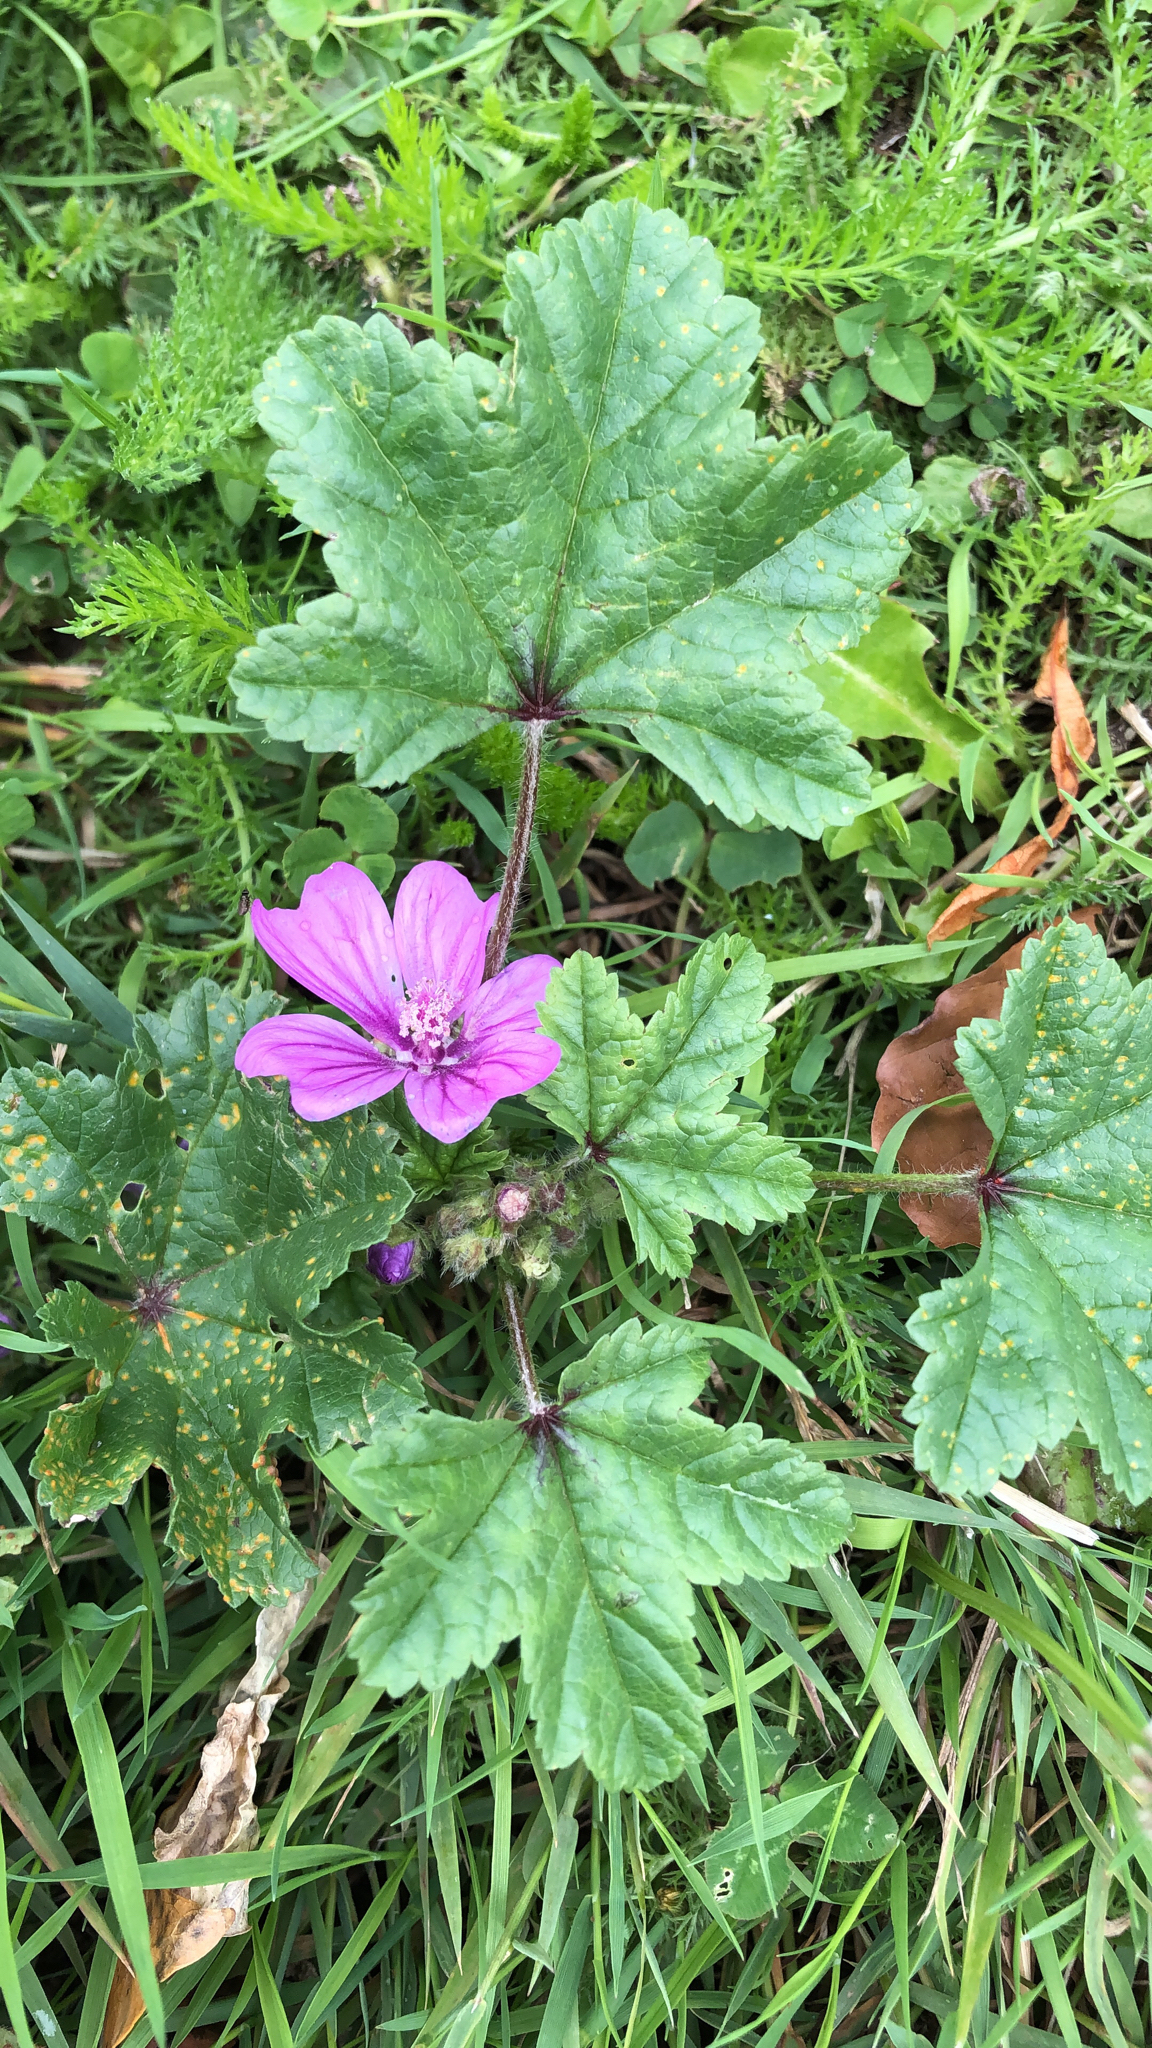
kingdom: Plantae
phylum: Tracheophyta
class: Magnoliopsida
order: Malvales
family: Malvaceae
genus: Malva
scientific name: Malva sylvestris
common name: Common mallow
